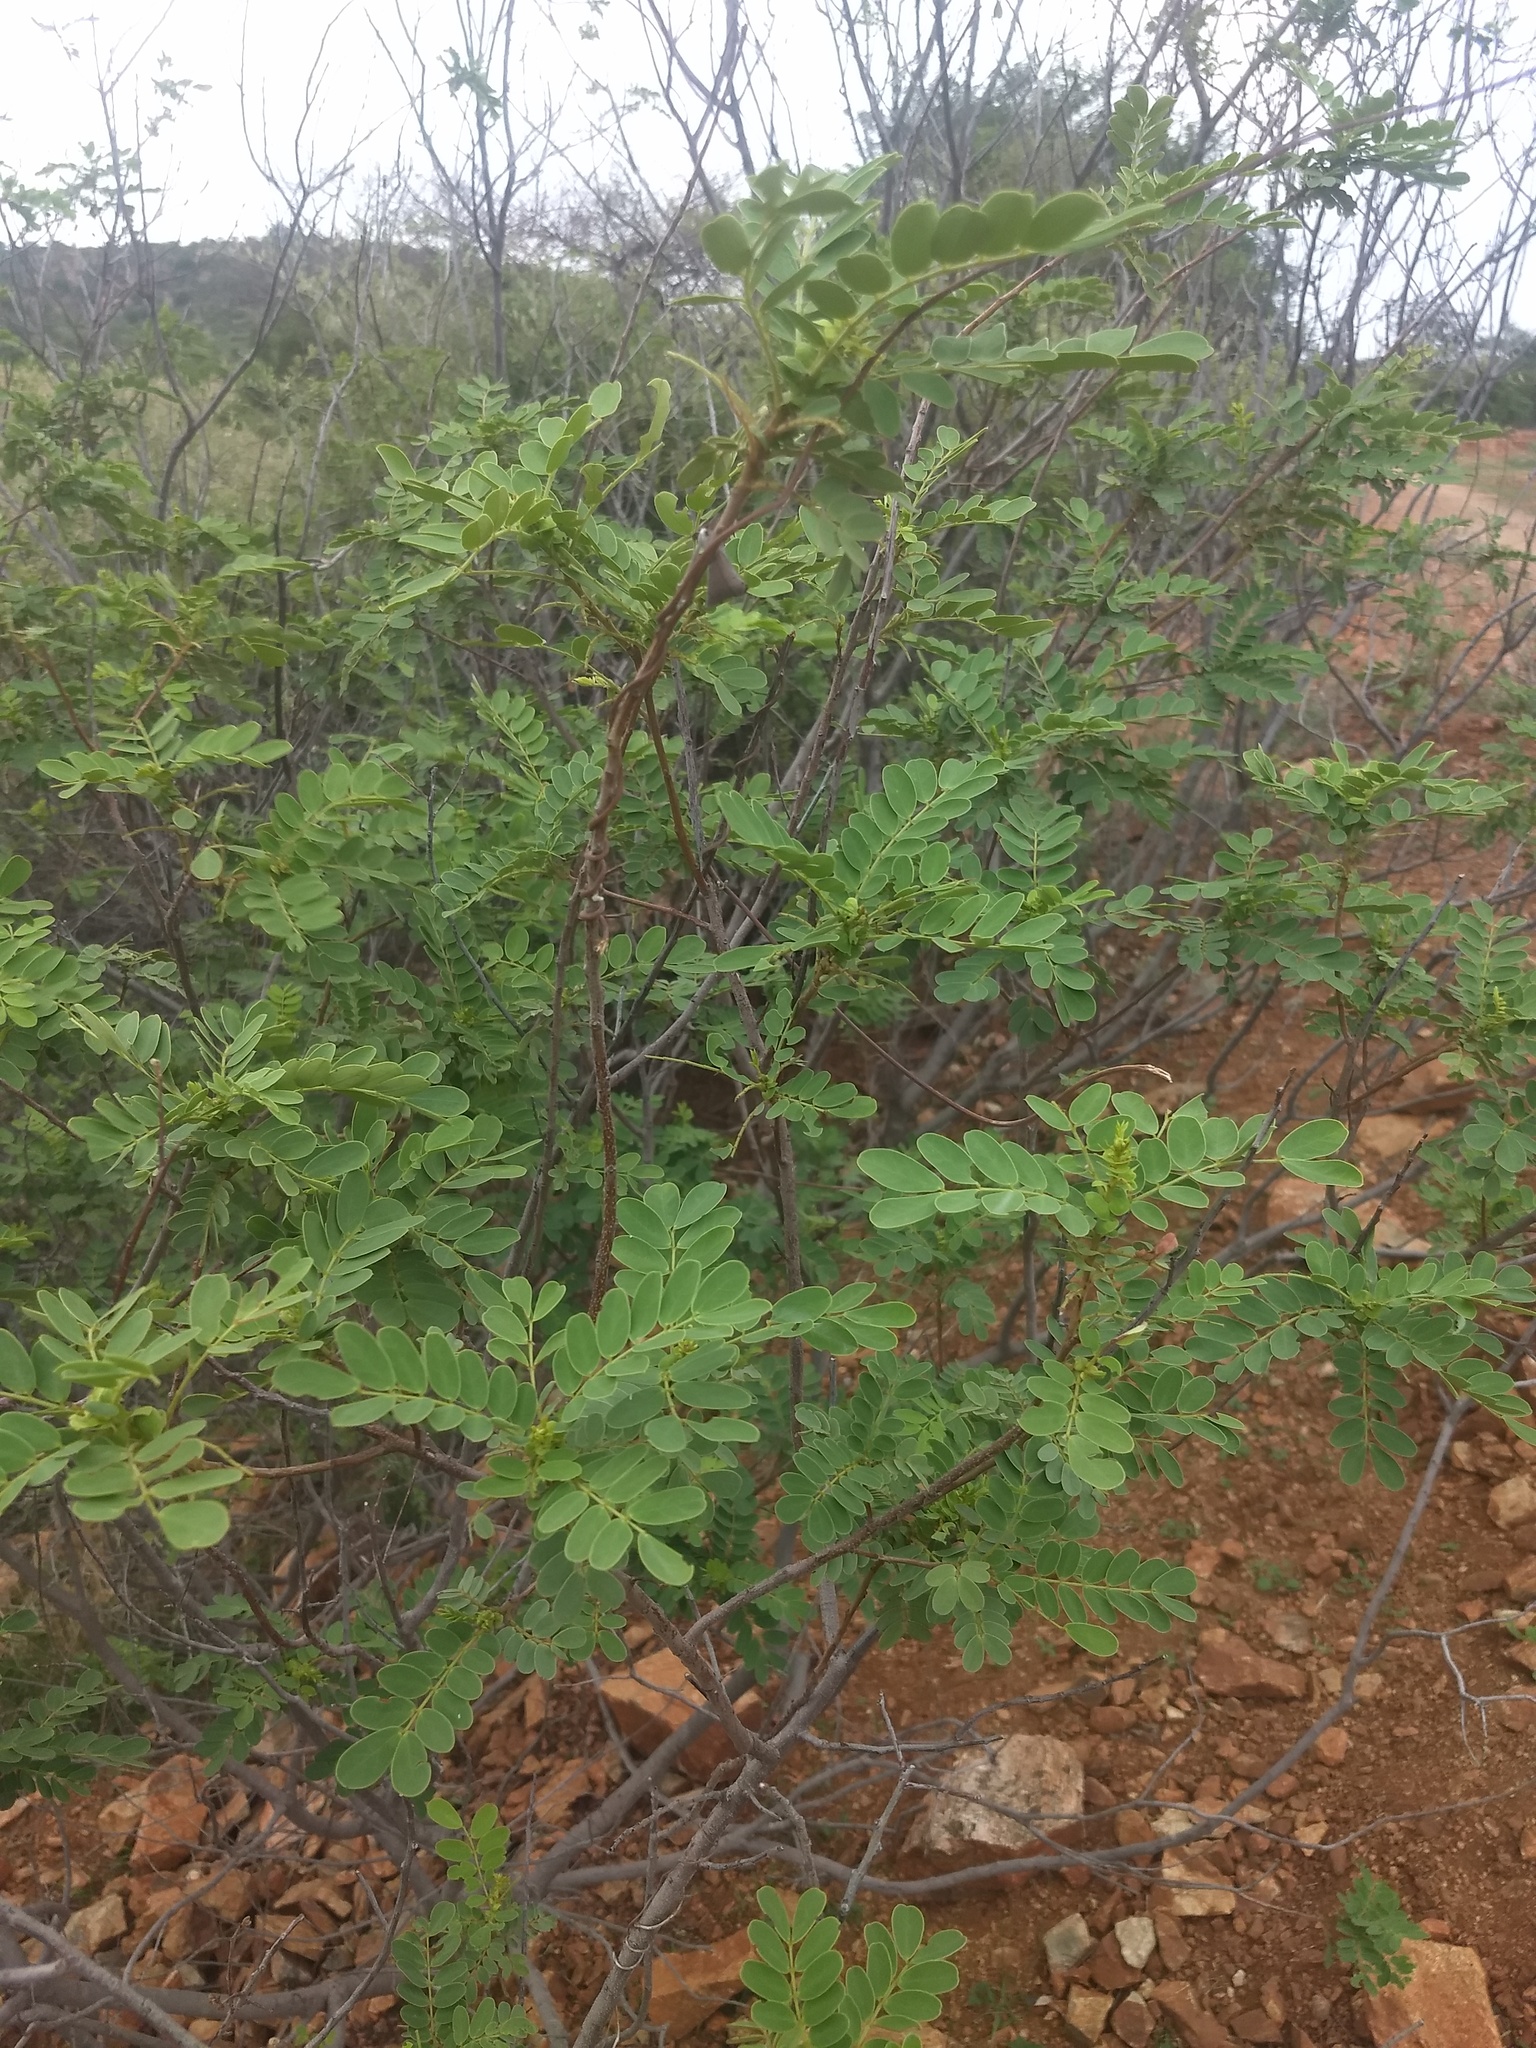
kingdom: Plantae
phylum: Tracheophyta
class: Magnoliopsida
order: Fabales
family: Fabaceae
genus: Senna
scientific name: Senna auriculata
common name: Tanner's cassia
